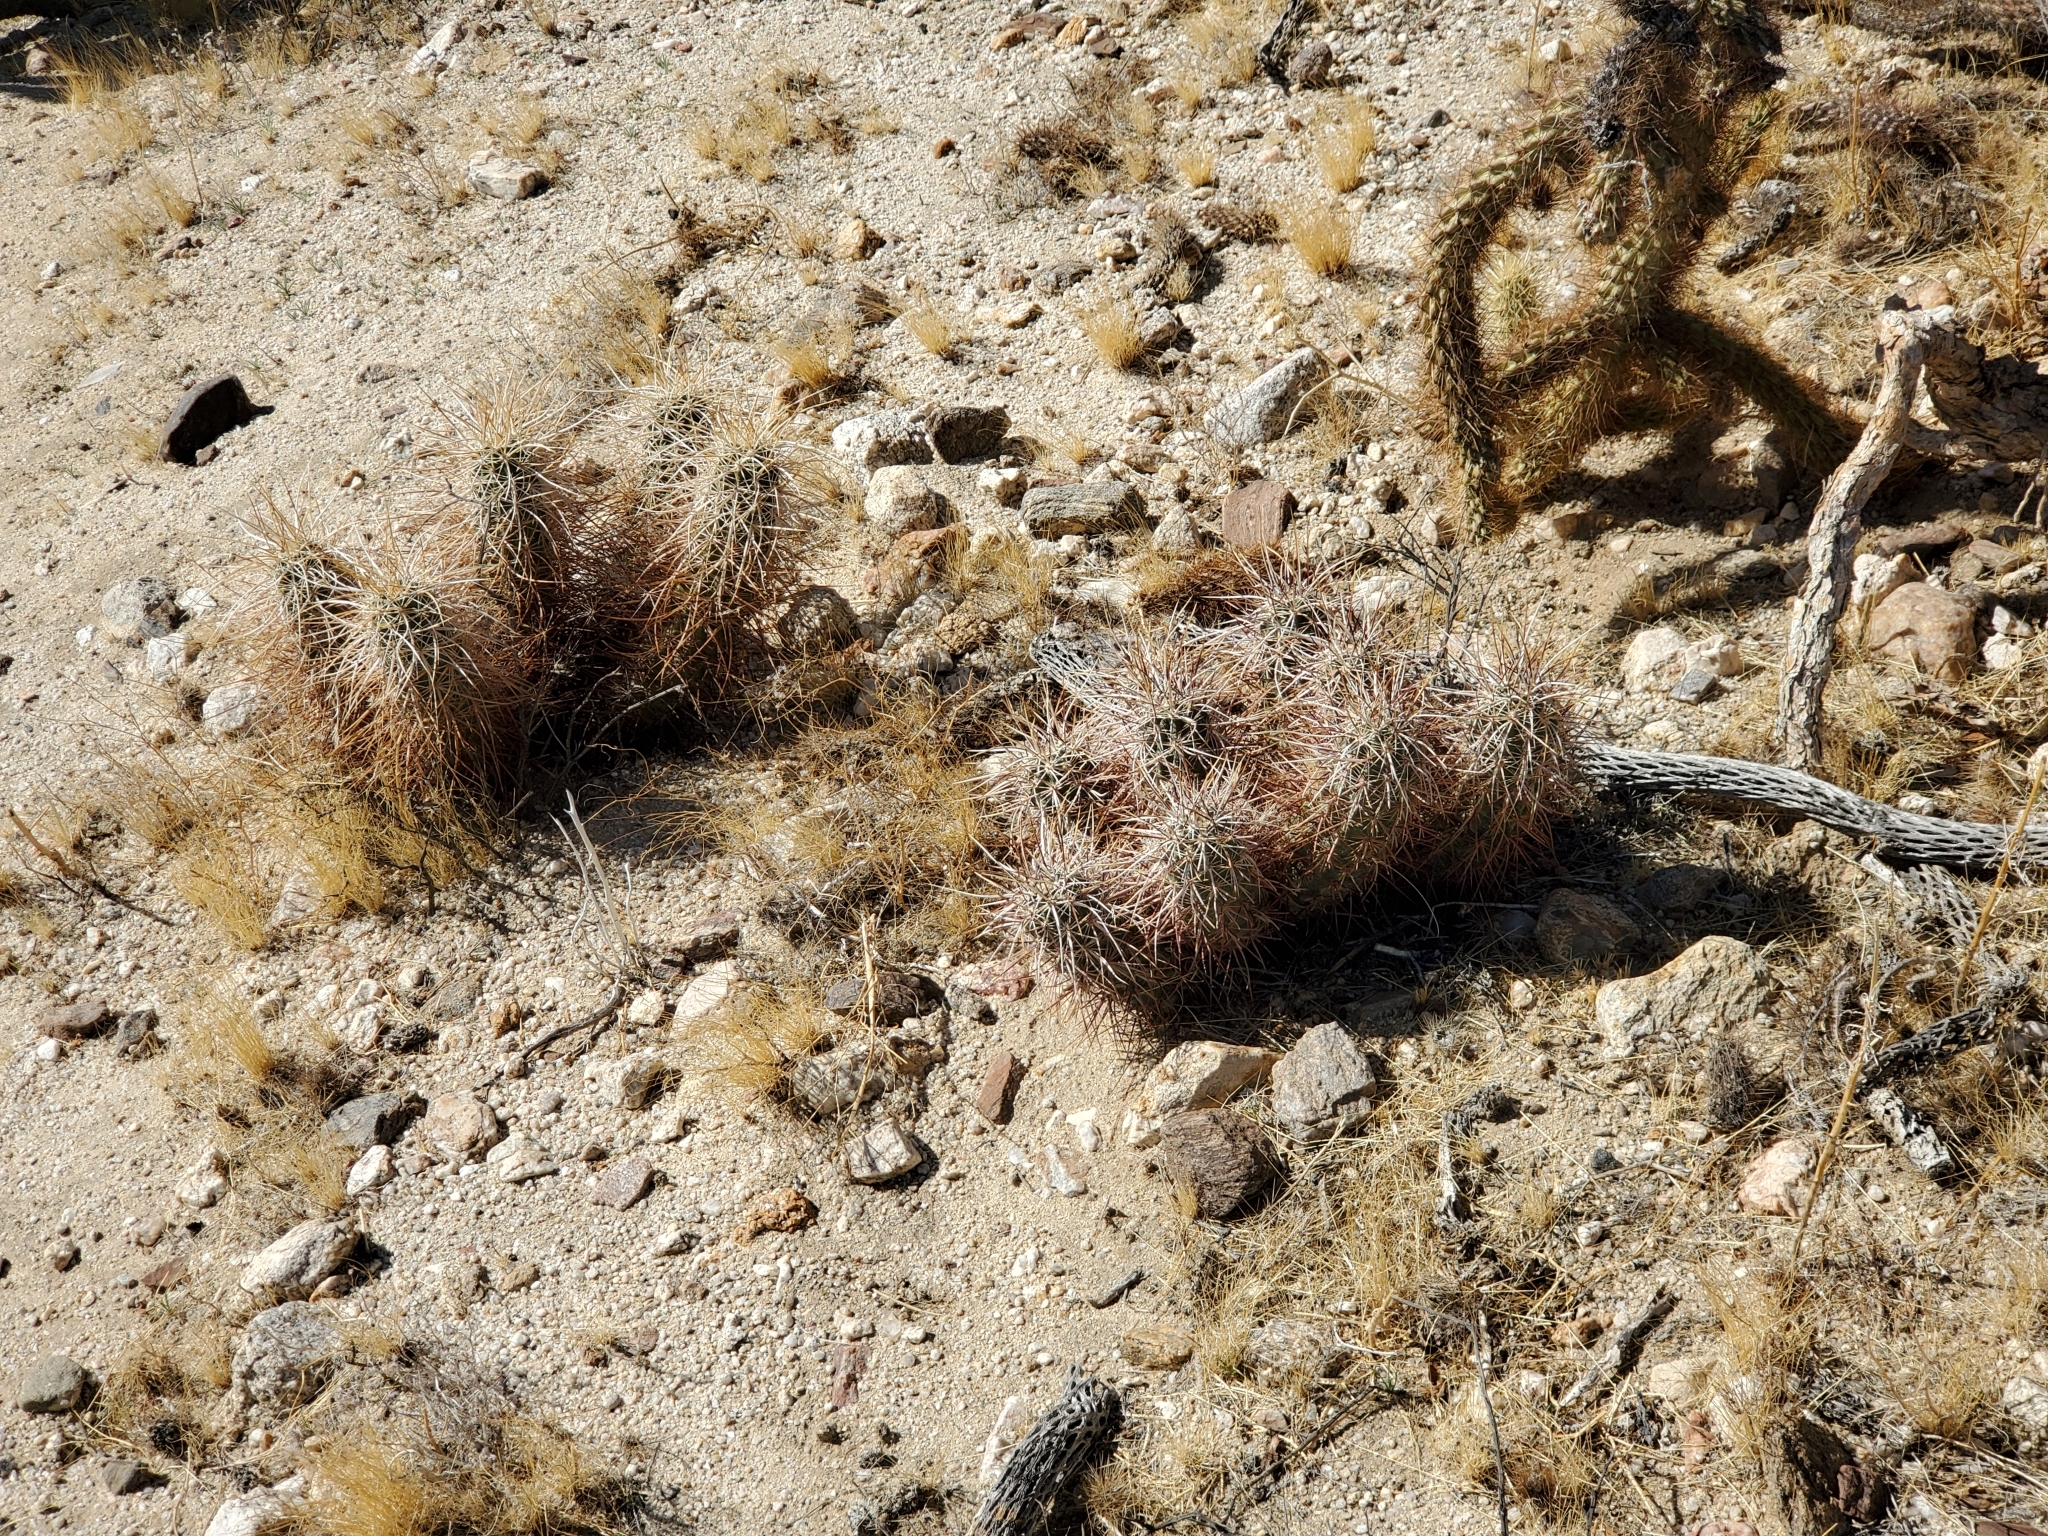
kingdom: Plantae
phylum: Tracheophyta
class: Magnoliopsida
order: Caryophyllales
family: Cactaceae
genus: Echinocereus
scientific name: Echinocereus engelmannii
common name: Engelmann's hedgehog cactus
